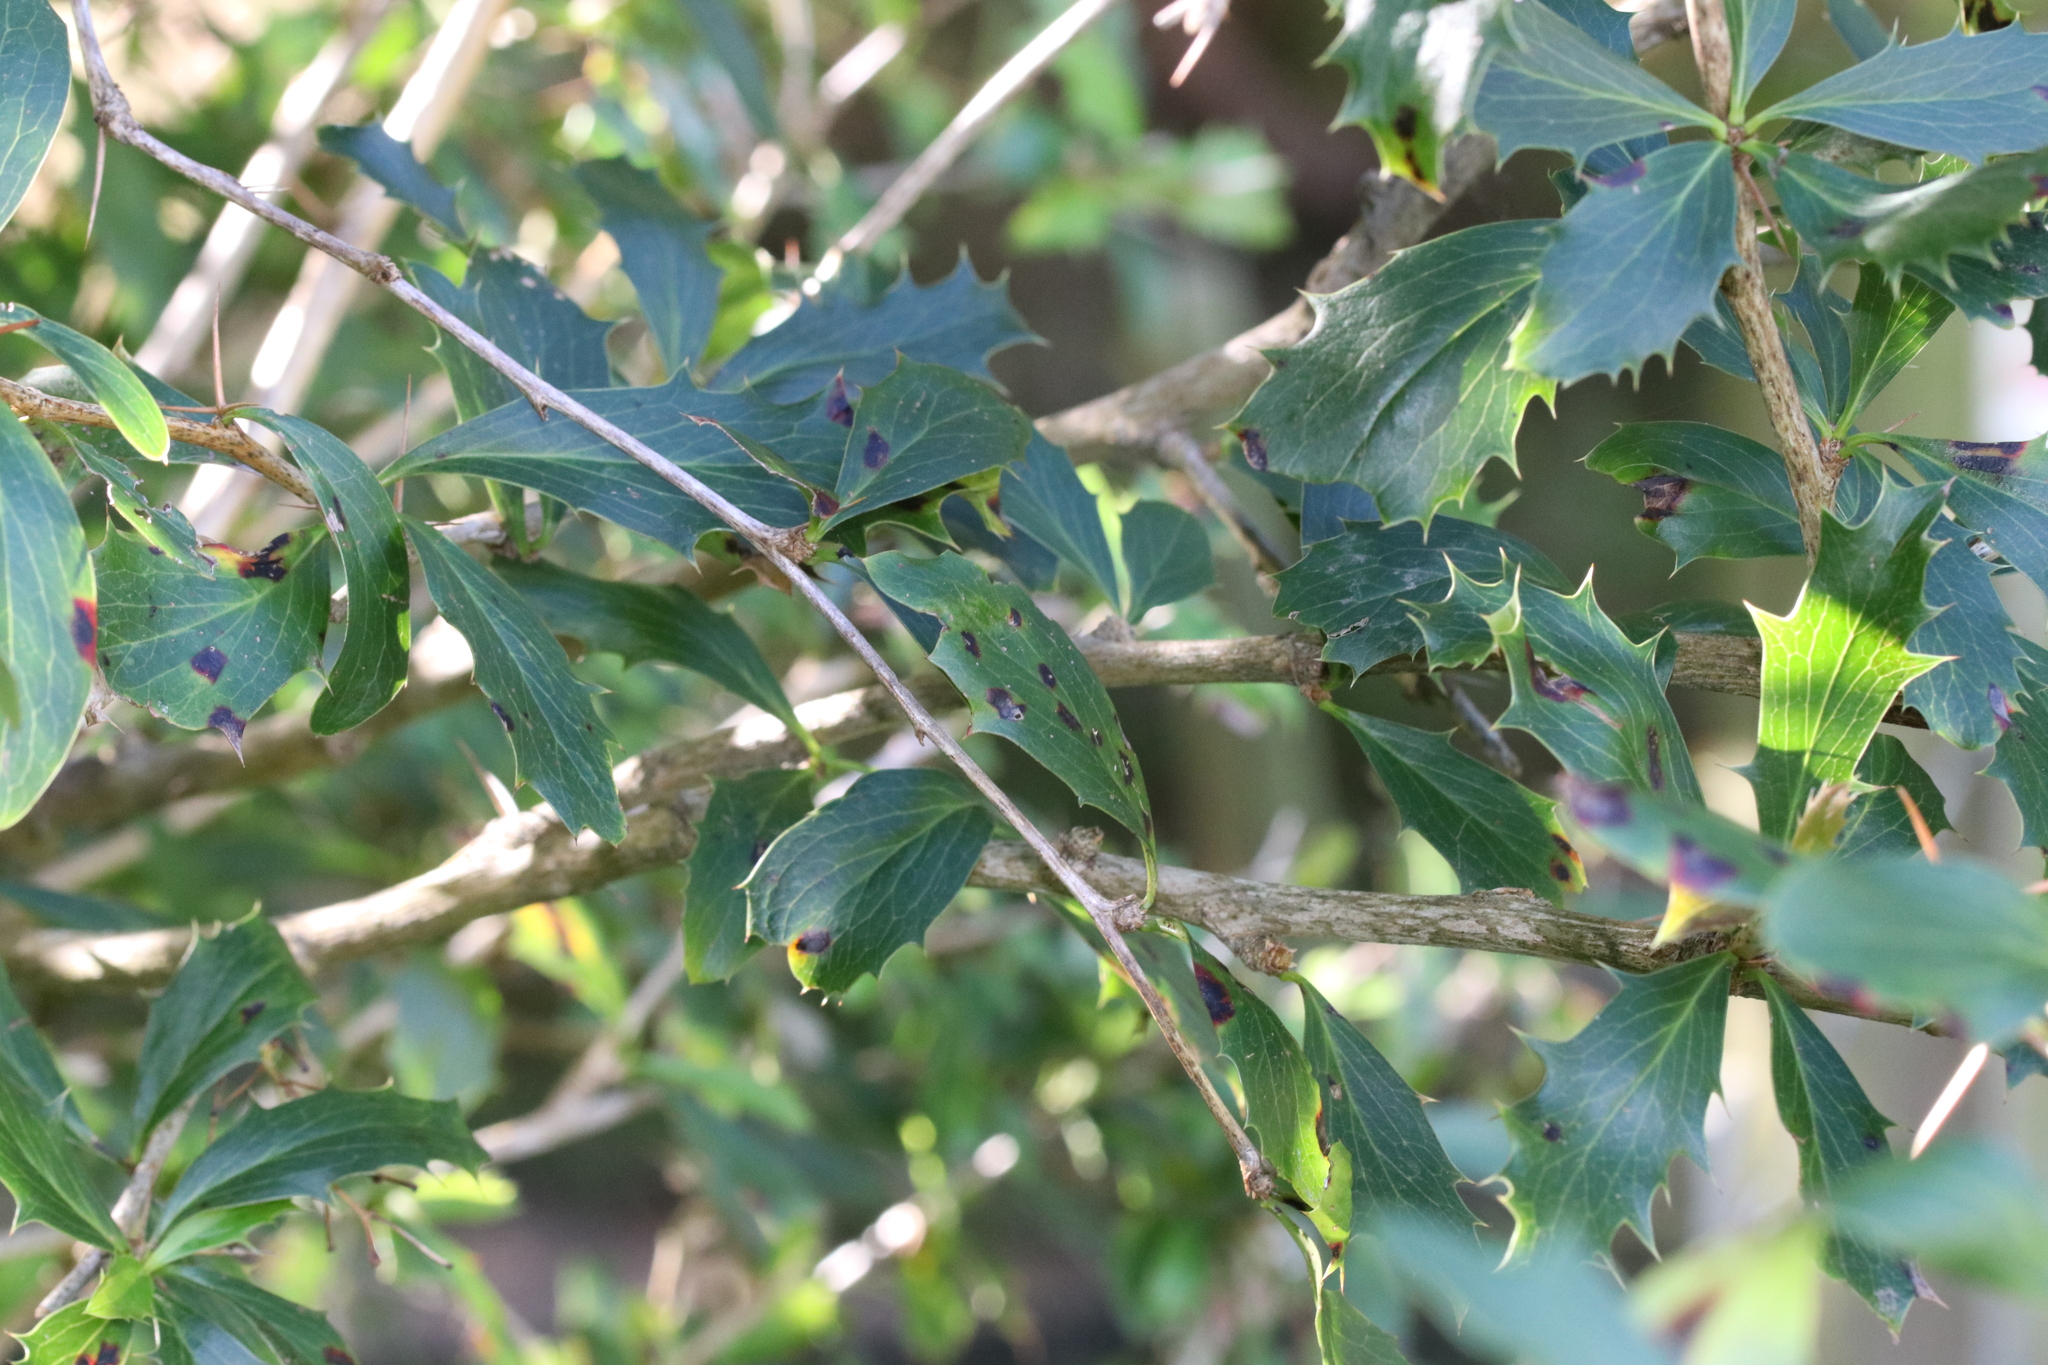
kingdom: Plantae
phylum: Tracheophyta
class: Magnoliopsida
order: Ranunculales
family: Berberidaceae
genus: Berberis
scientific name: Berberis glaucocarpa
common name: Great barberry
